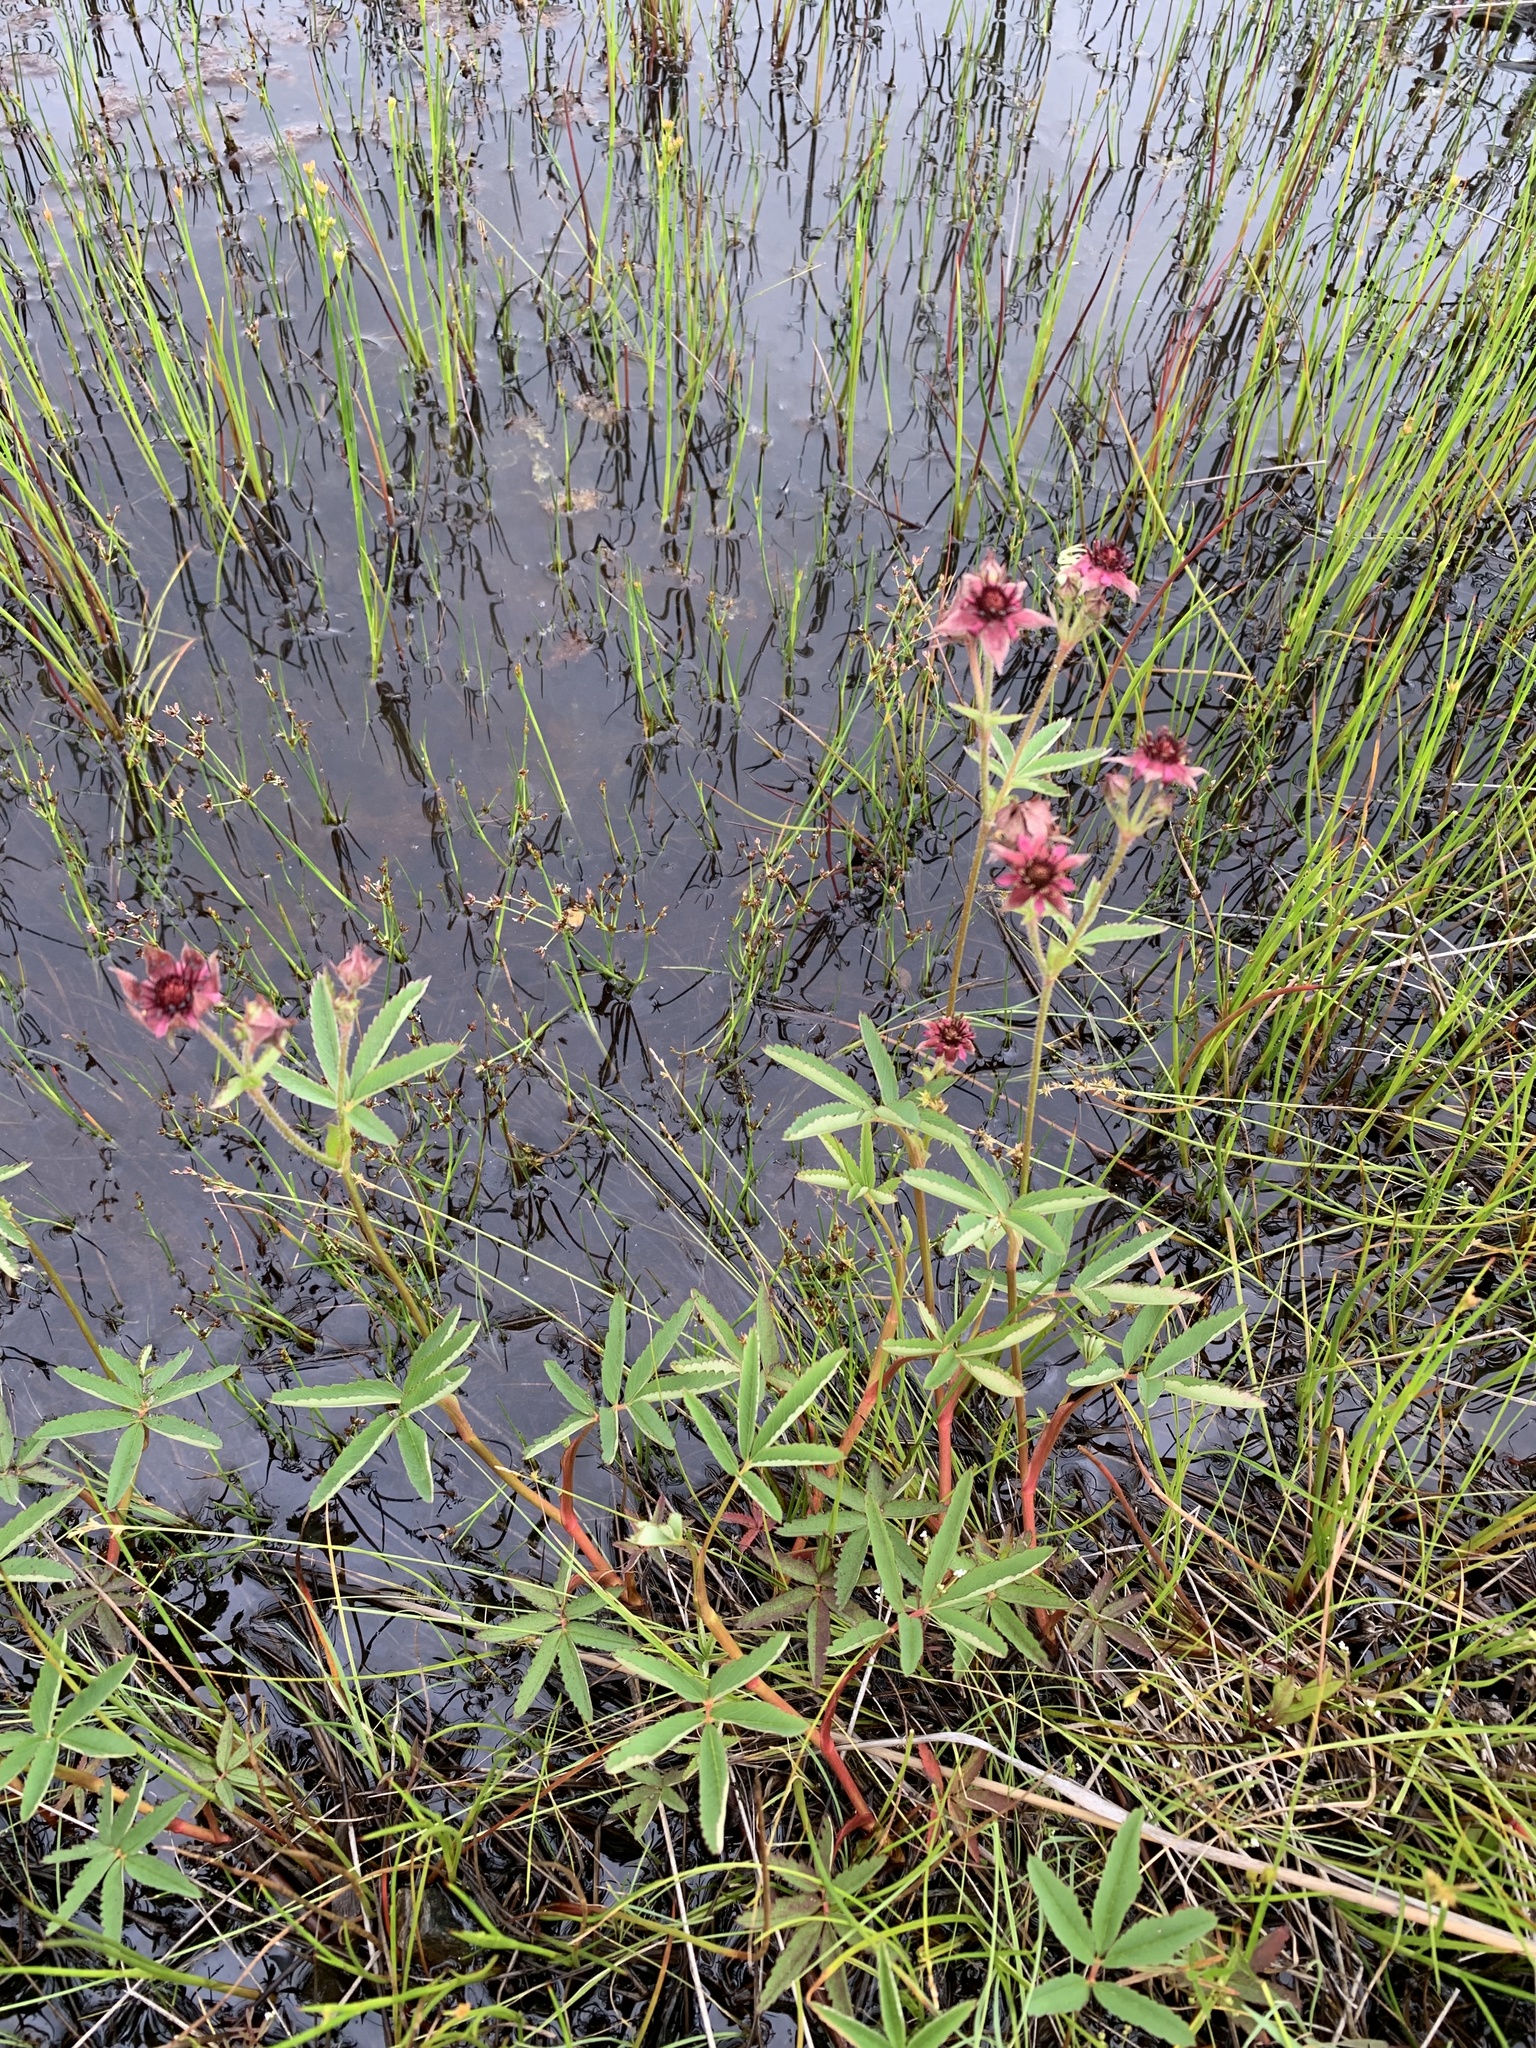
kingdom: Plantae
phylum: Tracheophyta
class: Magnoliopsida
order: Rosales
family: Rosaceae
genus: Comarum
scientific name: Comarum palustre
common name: Marsh cinquefoil
